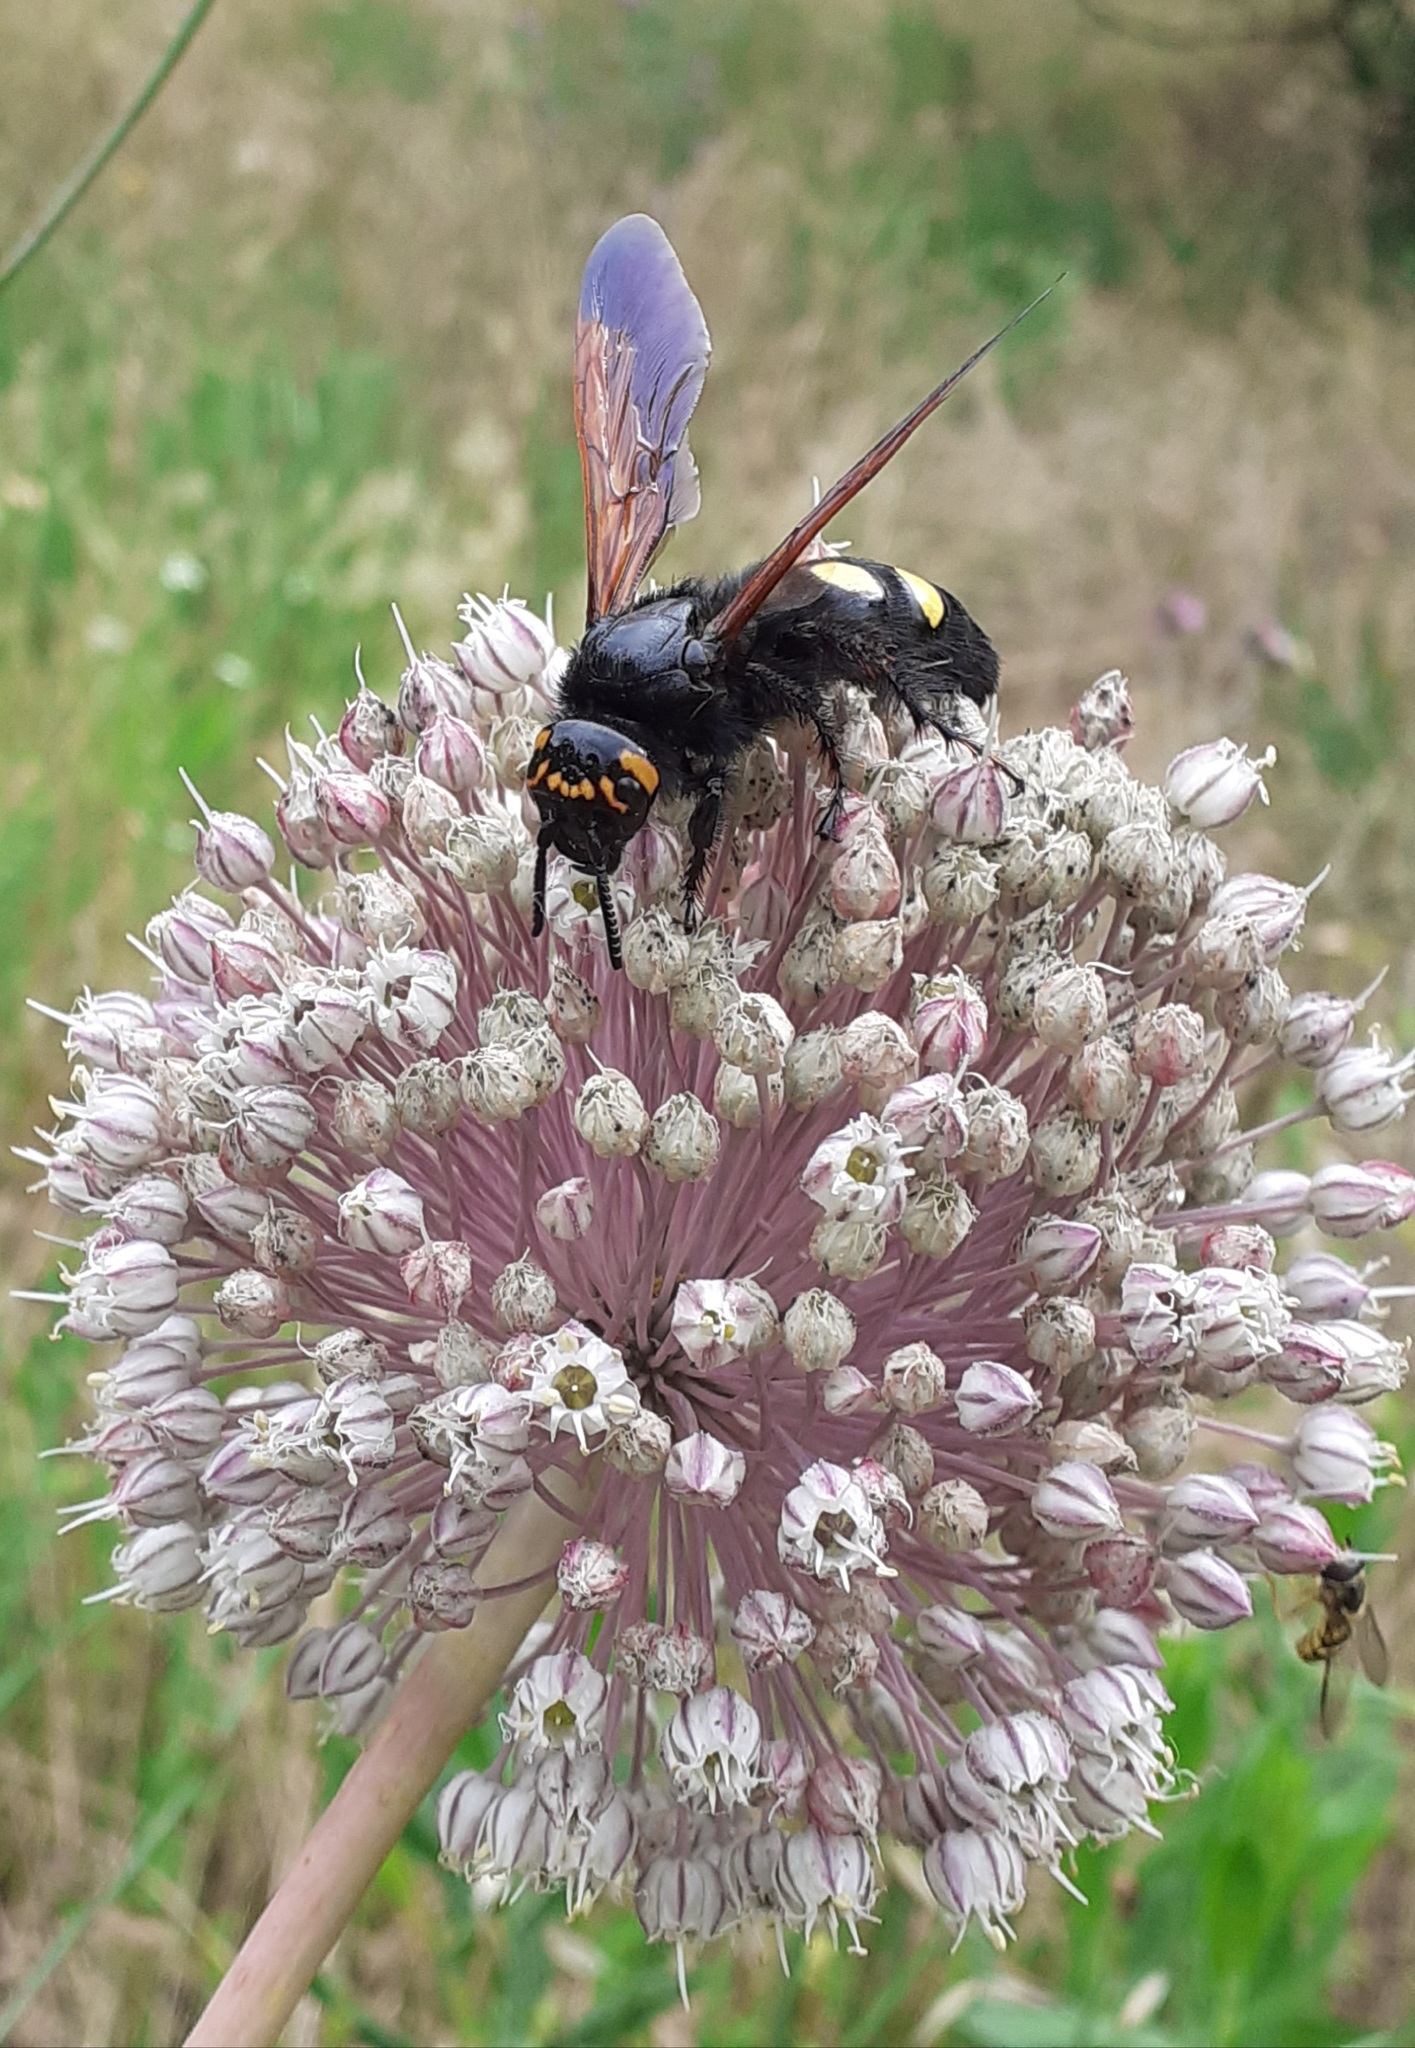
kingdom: Animalia
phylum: Arthropoda
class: Insecta
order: Hymenoptera
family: Scoliidae
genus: Megascolia
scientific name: Megascolia maculata
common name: Mammoth wasp
